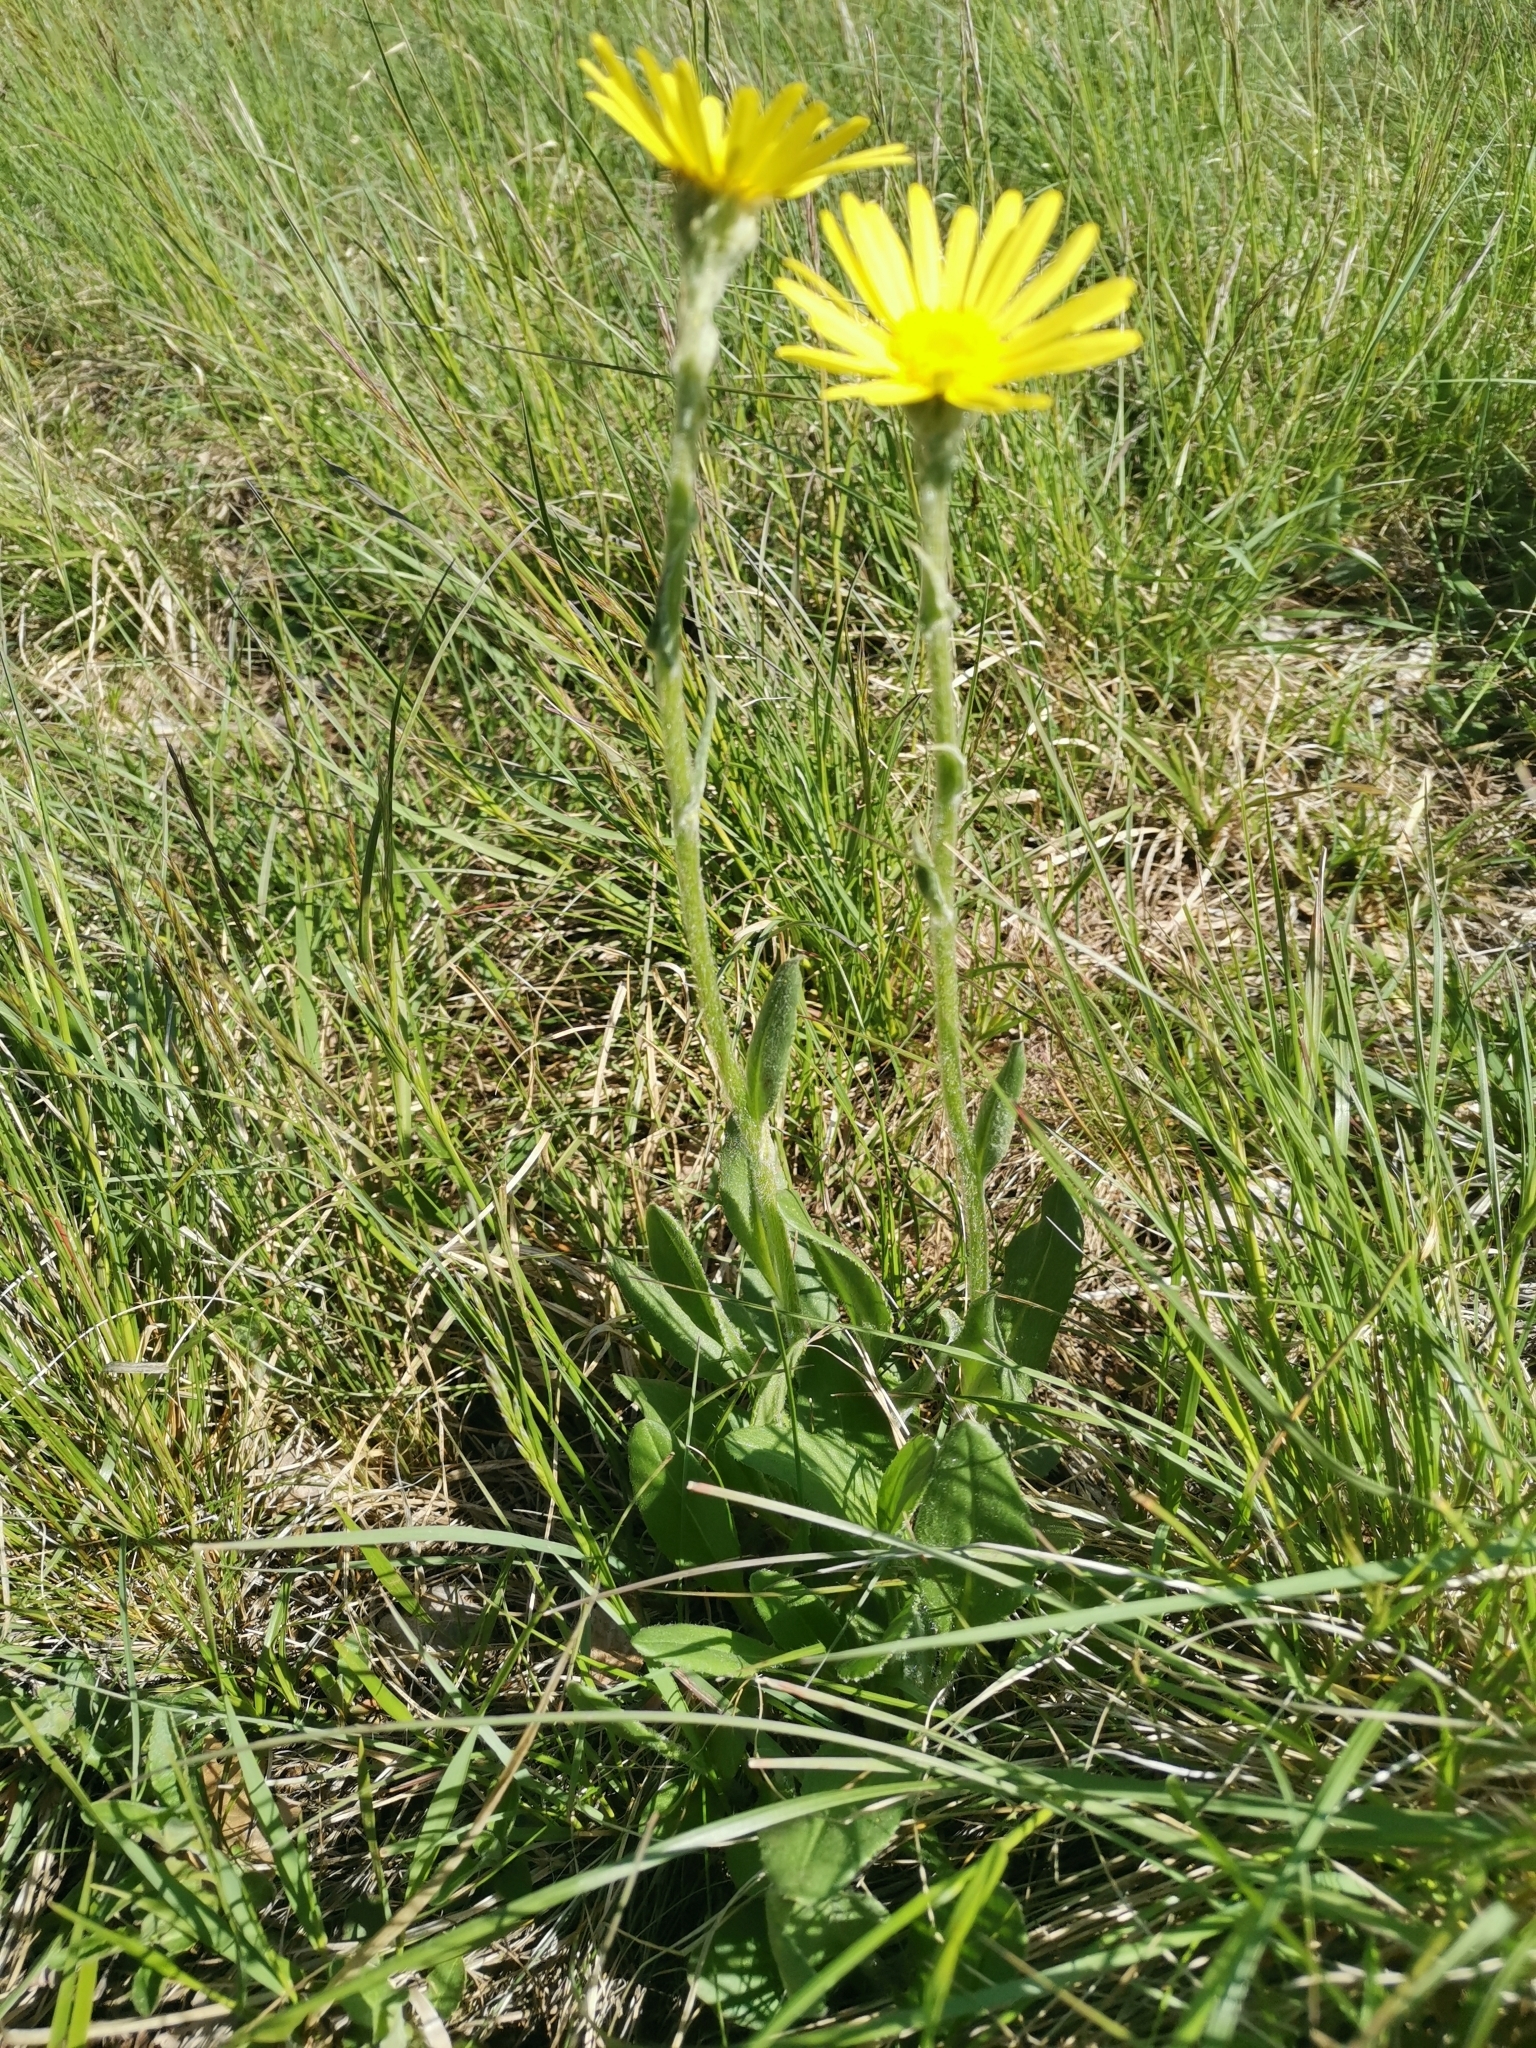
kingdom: Plantae
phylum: Tracheophyta
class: Magnoliopsida
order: Asterales
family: Asteraceae
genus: Senecio
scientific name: Senecio scopolii
